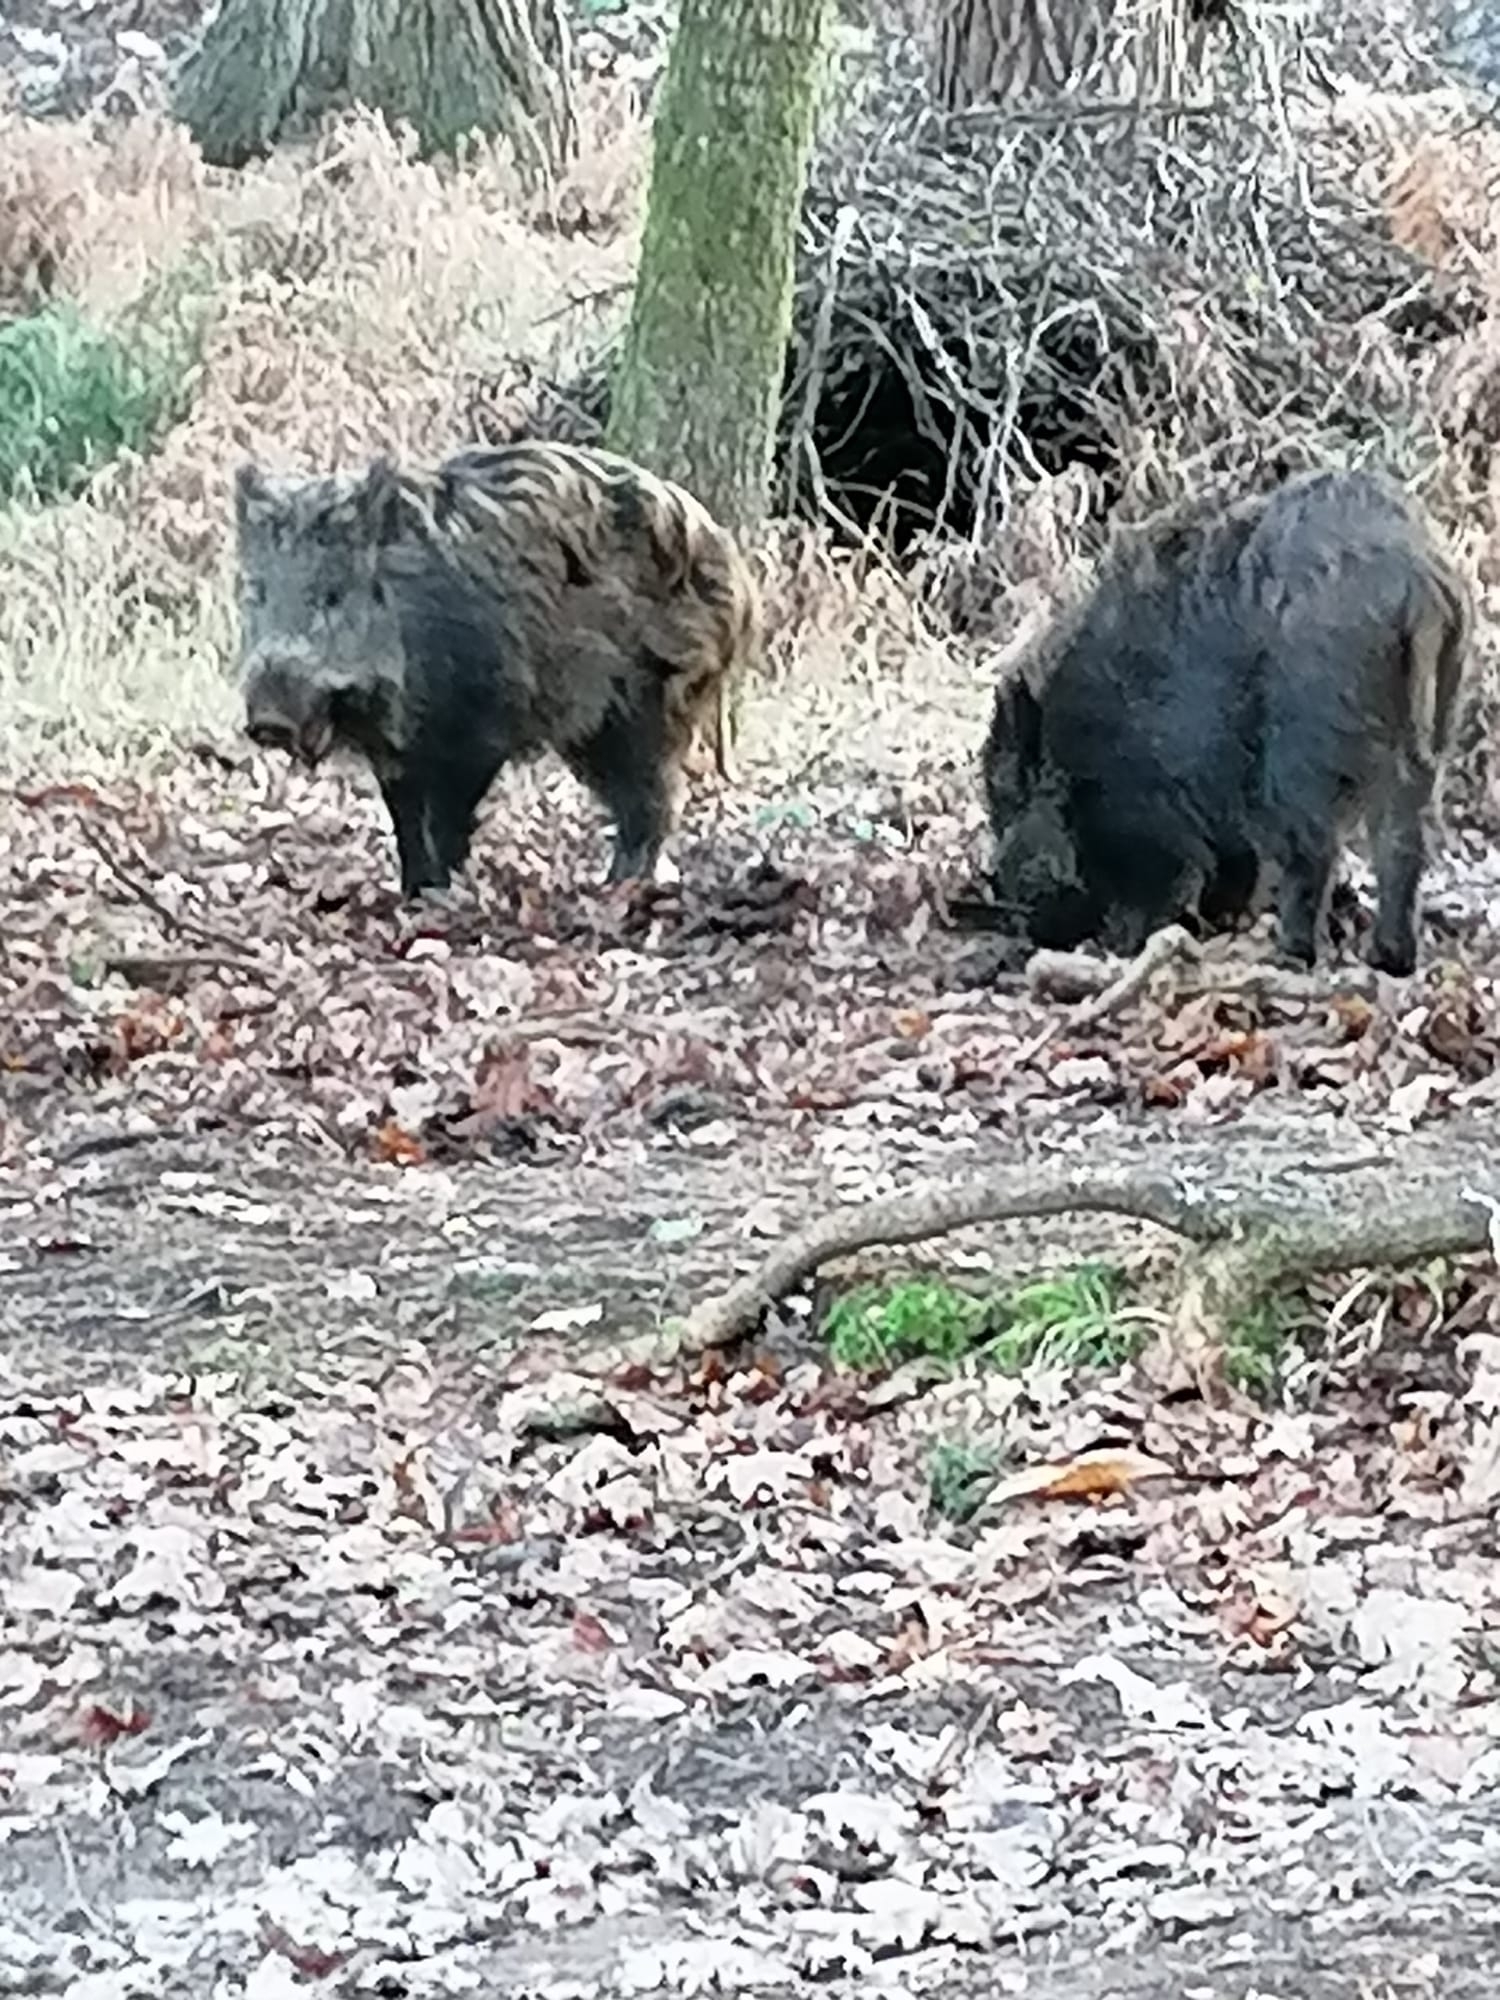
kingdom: Animalia
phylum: Chordata
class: Mammalia
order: Artiodactyla
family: Suidae
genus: Sus
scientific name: Sus scrofa
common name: Wild boar
